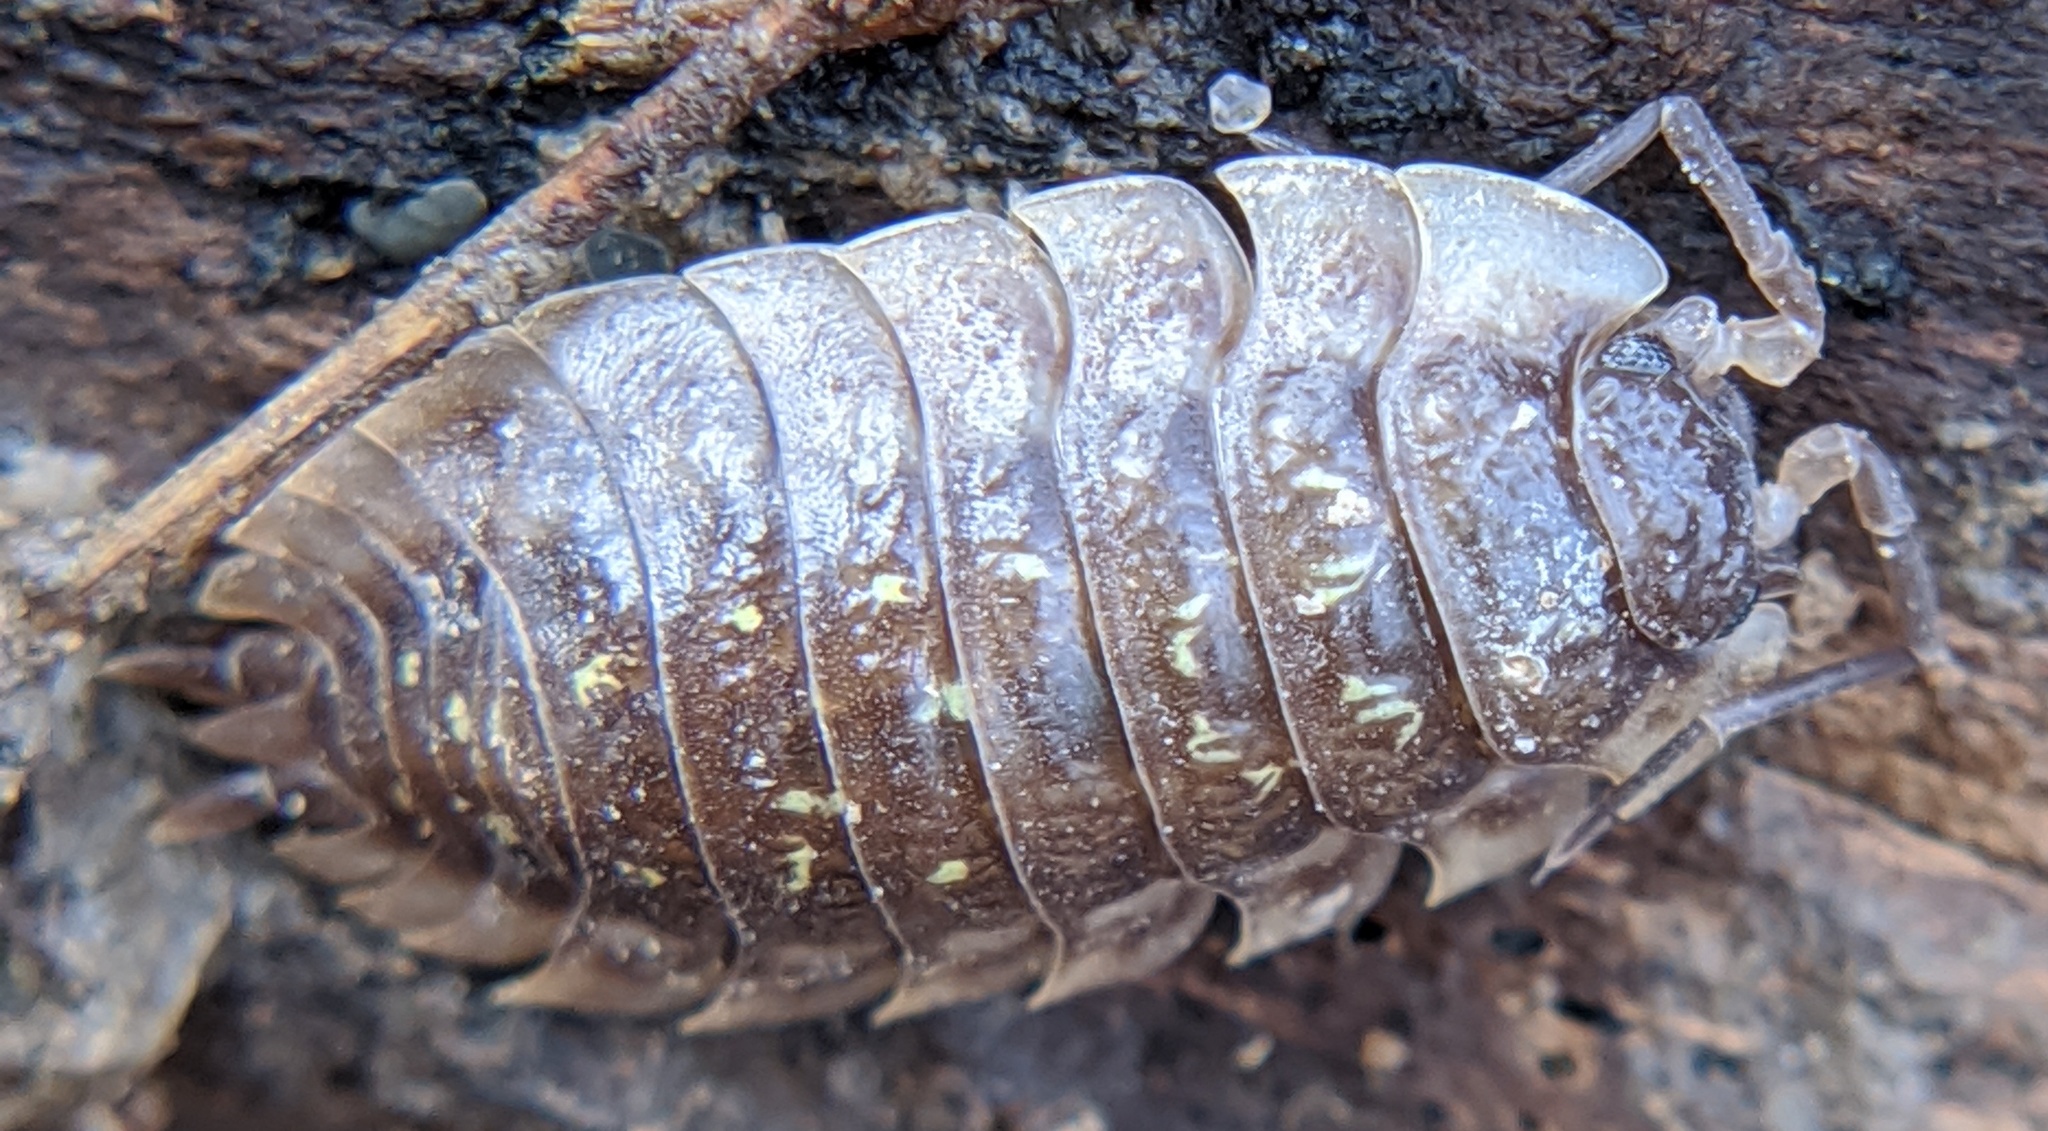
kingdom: Animalia
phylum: Arthropoda
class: Malacostraca
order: Isopoda
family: Oniscidae
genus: Oniscus
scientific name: Oniscus asellus
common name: Common shiny woodlouse
